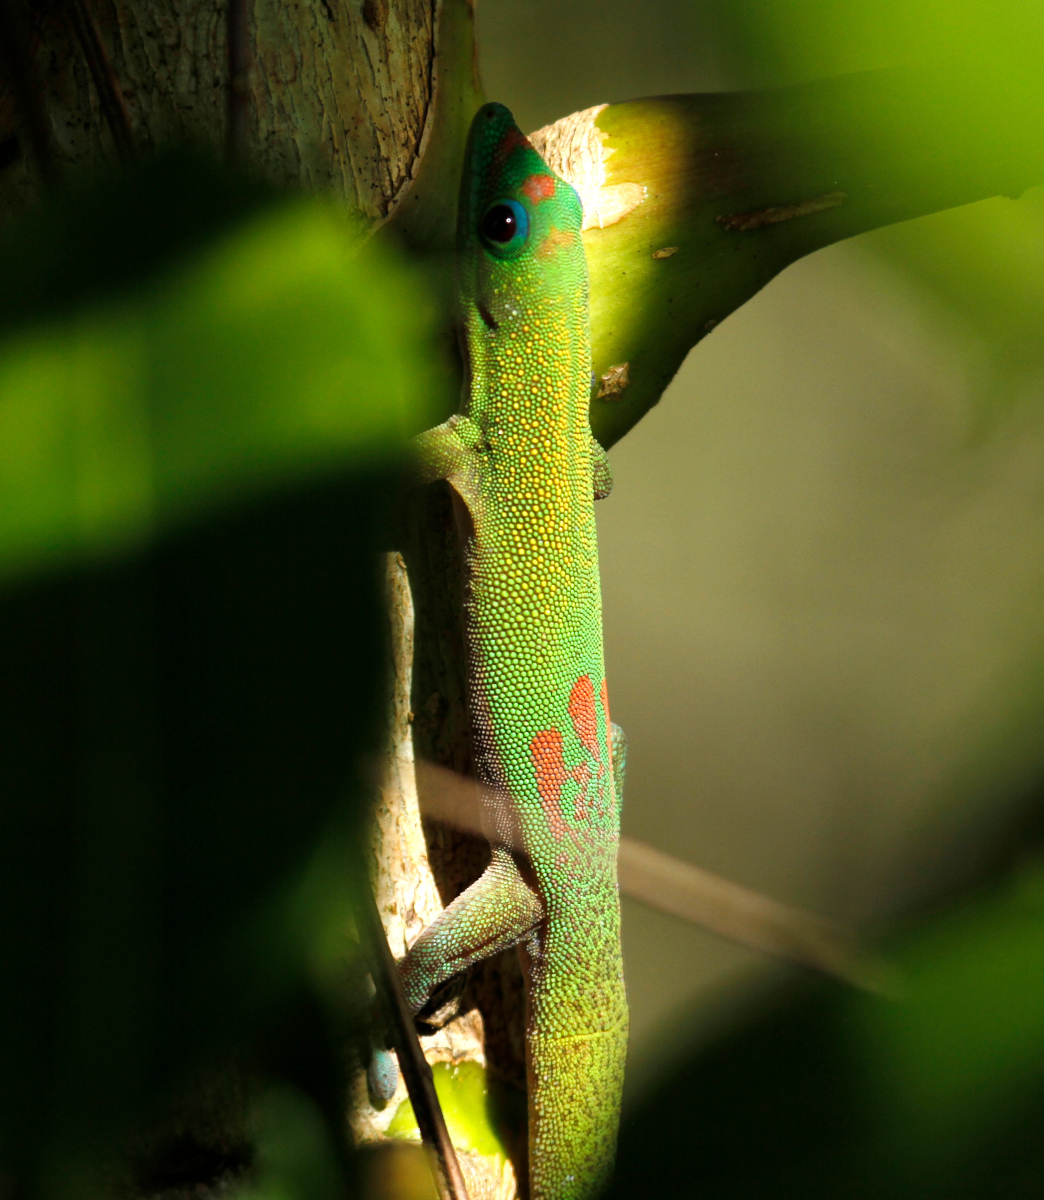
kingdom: Animalia
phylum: Chordata
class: Squamata
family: Gekkonidae
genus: Phelsuma
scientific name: Phelsuma laticauda
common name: Gold dust day gecko
